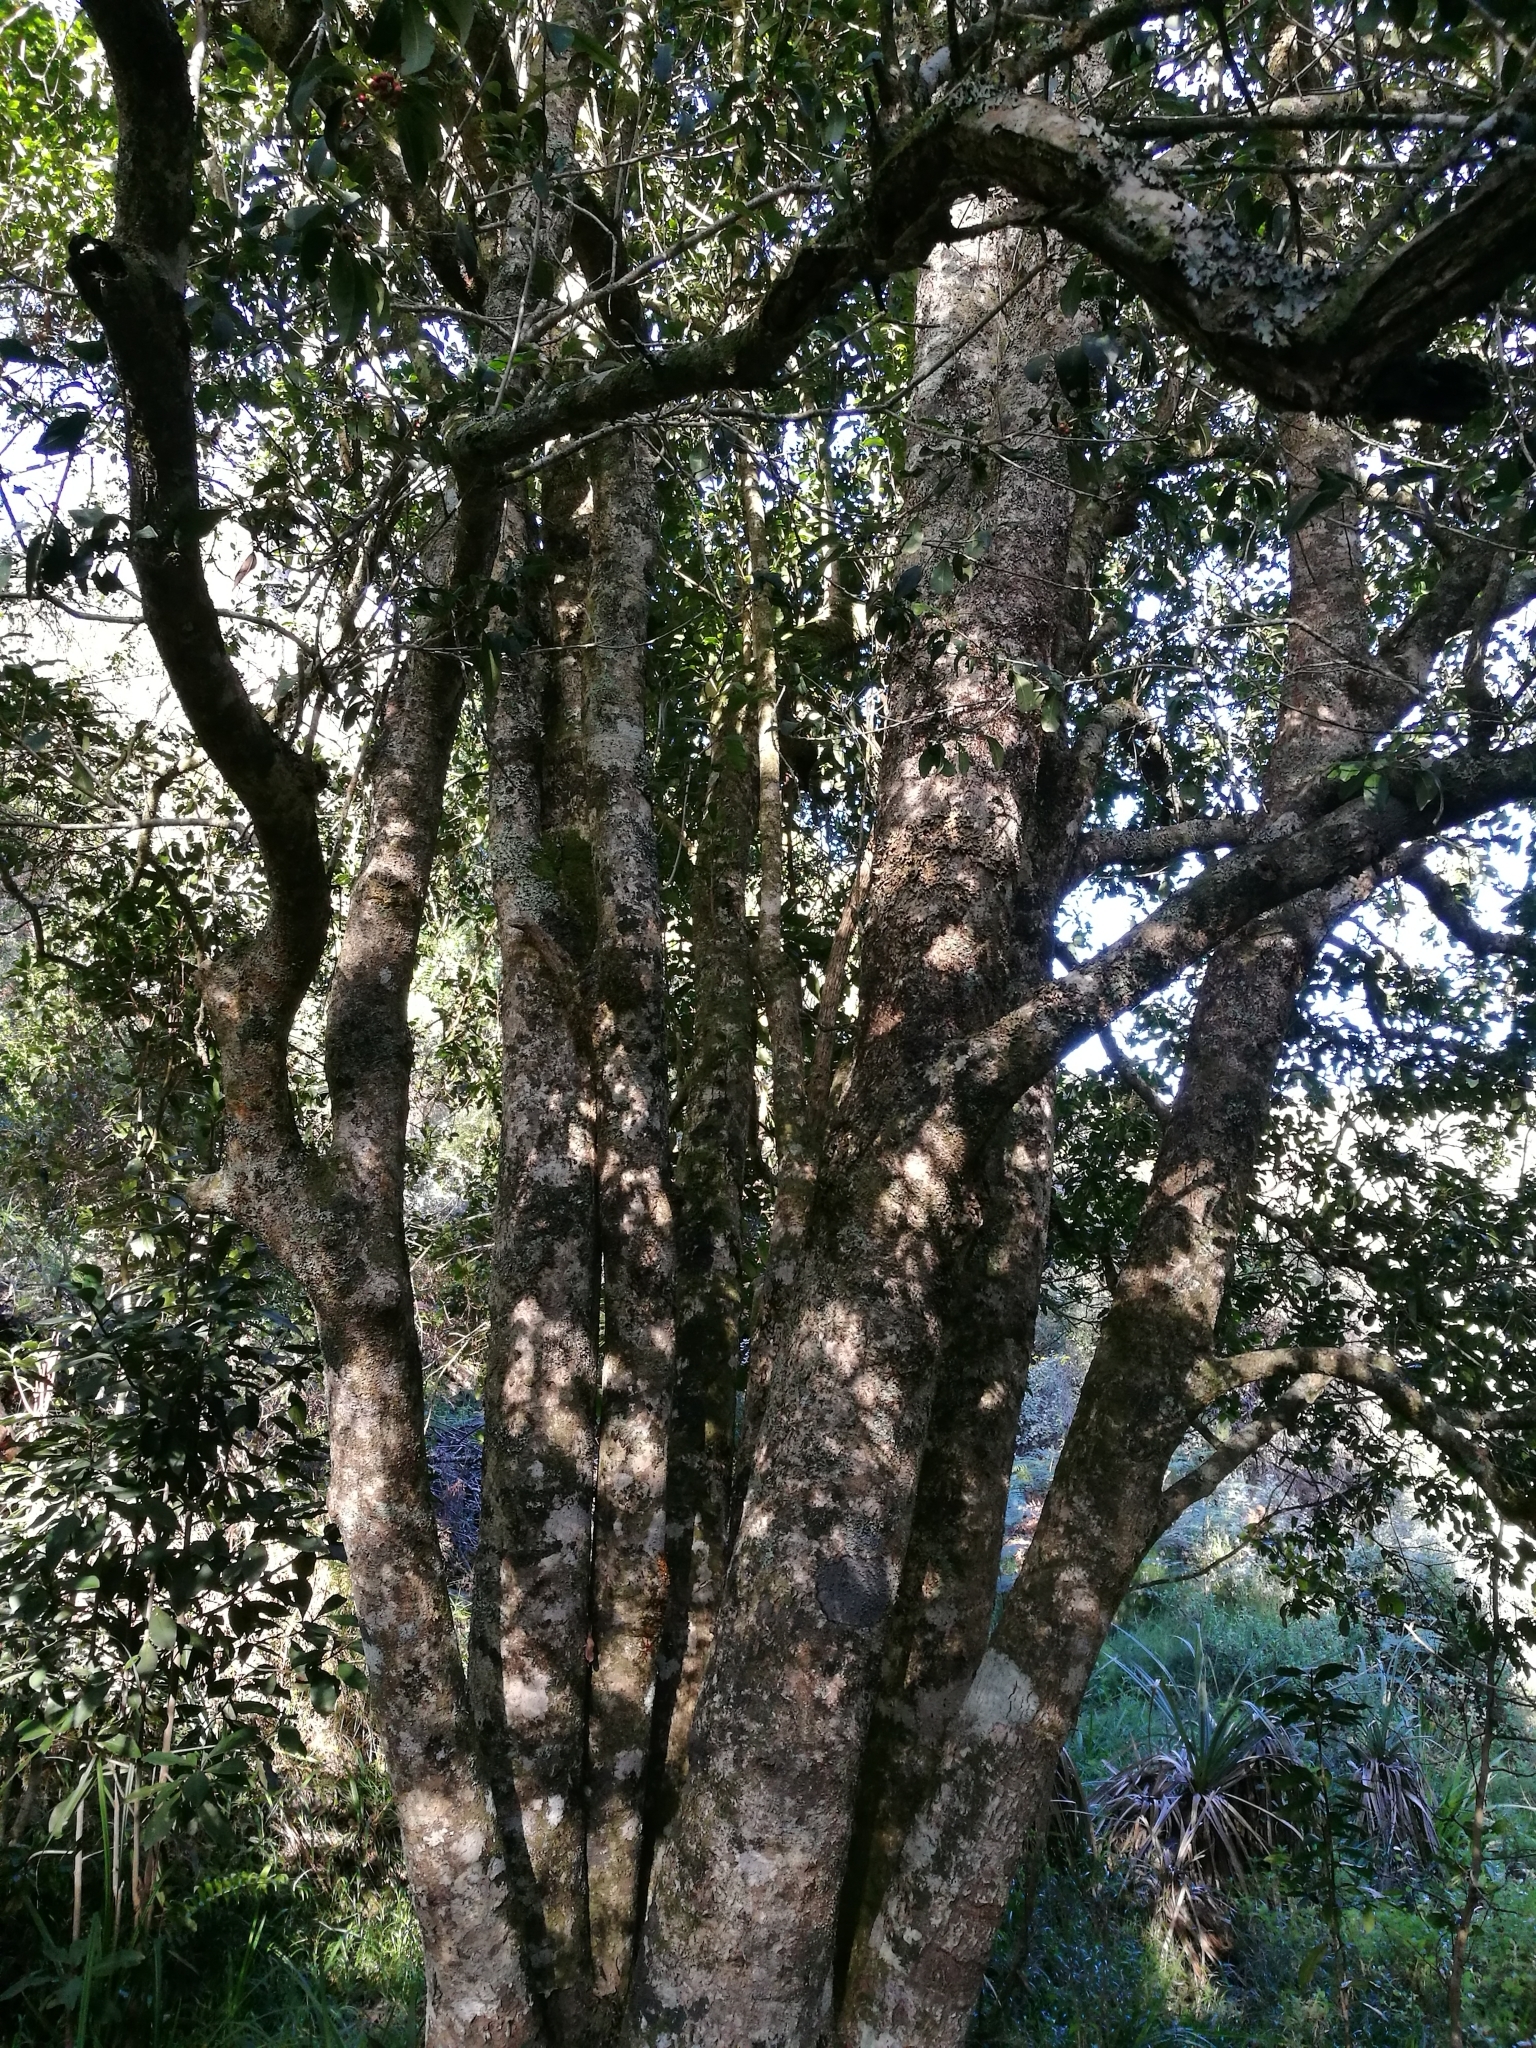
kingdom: Plantae
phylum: Tracheophyta
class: Magnoliopsida
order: Aquifoliales
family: Aquifoliaceae
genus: Ilex
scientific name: Ilex mitis
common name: African holly
